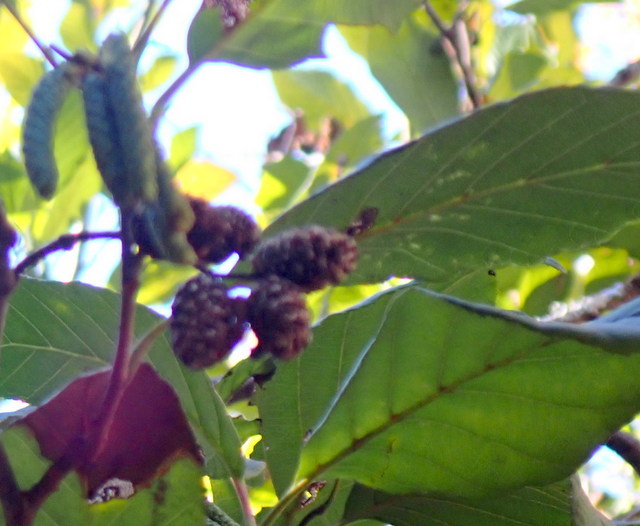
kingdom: Plantae
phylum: Tracheophyta
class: Magnoliopsida
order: Fagales
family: Betulaceae
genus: Alnus
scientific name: Alnus serrulata
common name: Hazel alder
